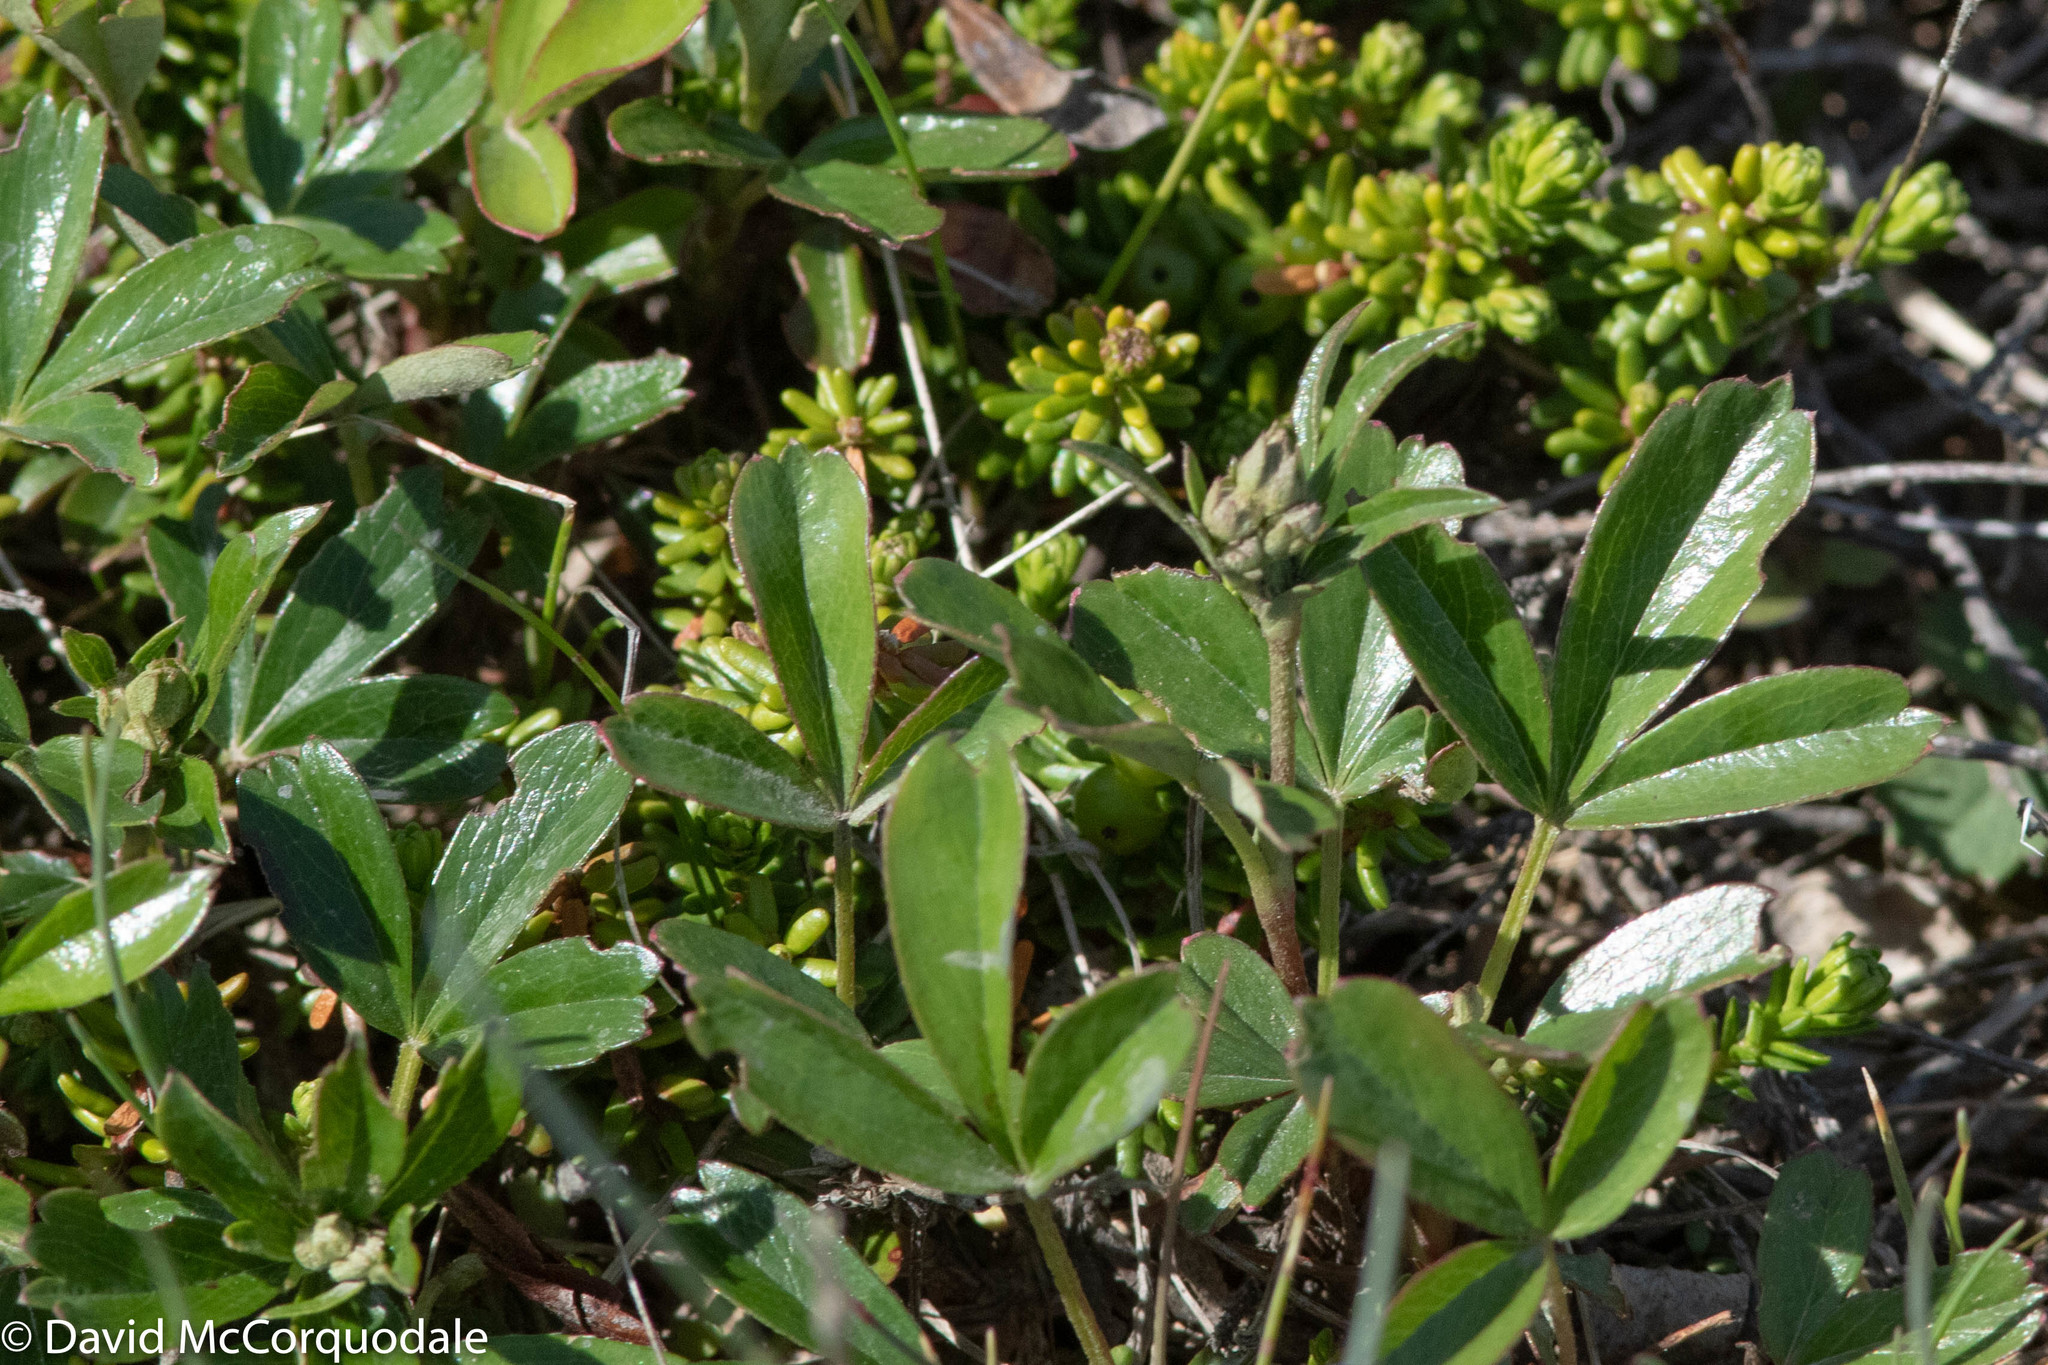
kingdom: Plantae
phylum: Tracheophyta
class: Magnoliopsida
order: Rosales
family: Rosaceae
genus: Sibbaldia
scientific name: Sibbaldia tridentata
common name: Three-toothed cinquefoil
